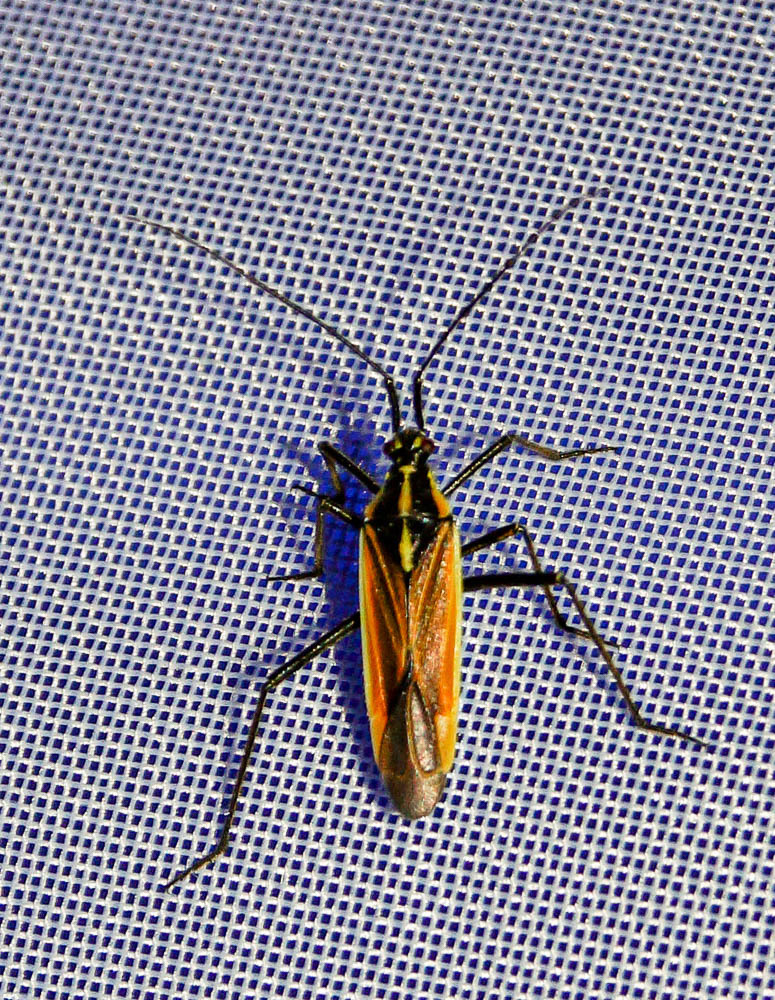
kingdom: Animalia
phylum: Arthropoda
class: Insecta
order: Hemiptera
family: Miridae
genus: Leptopterna
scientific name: Leptopterna dolabrata
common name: Meadow plant bug
